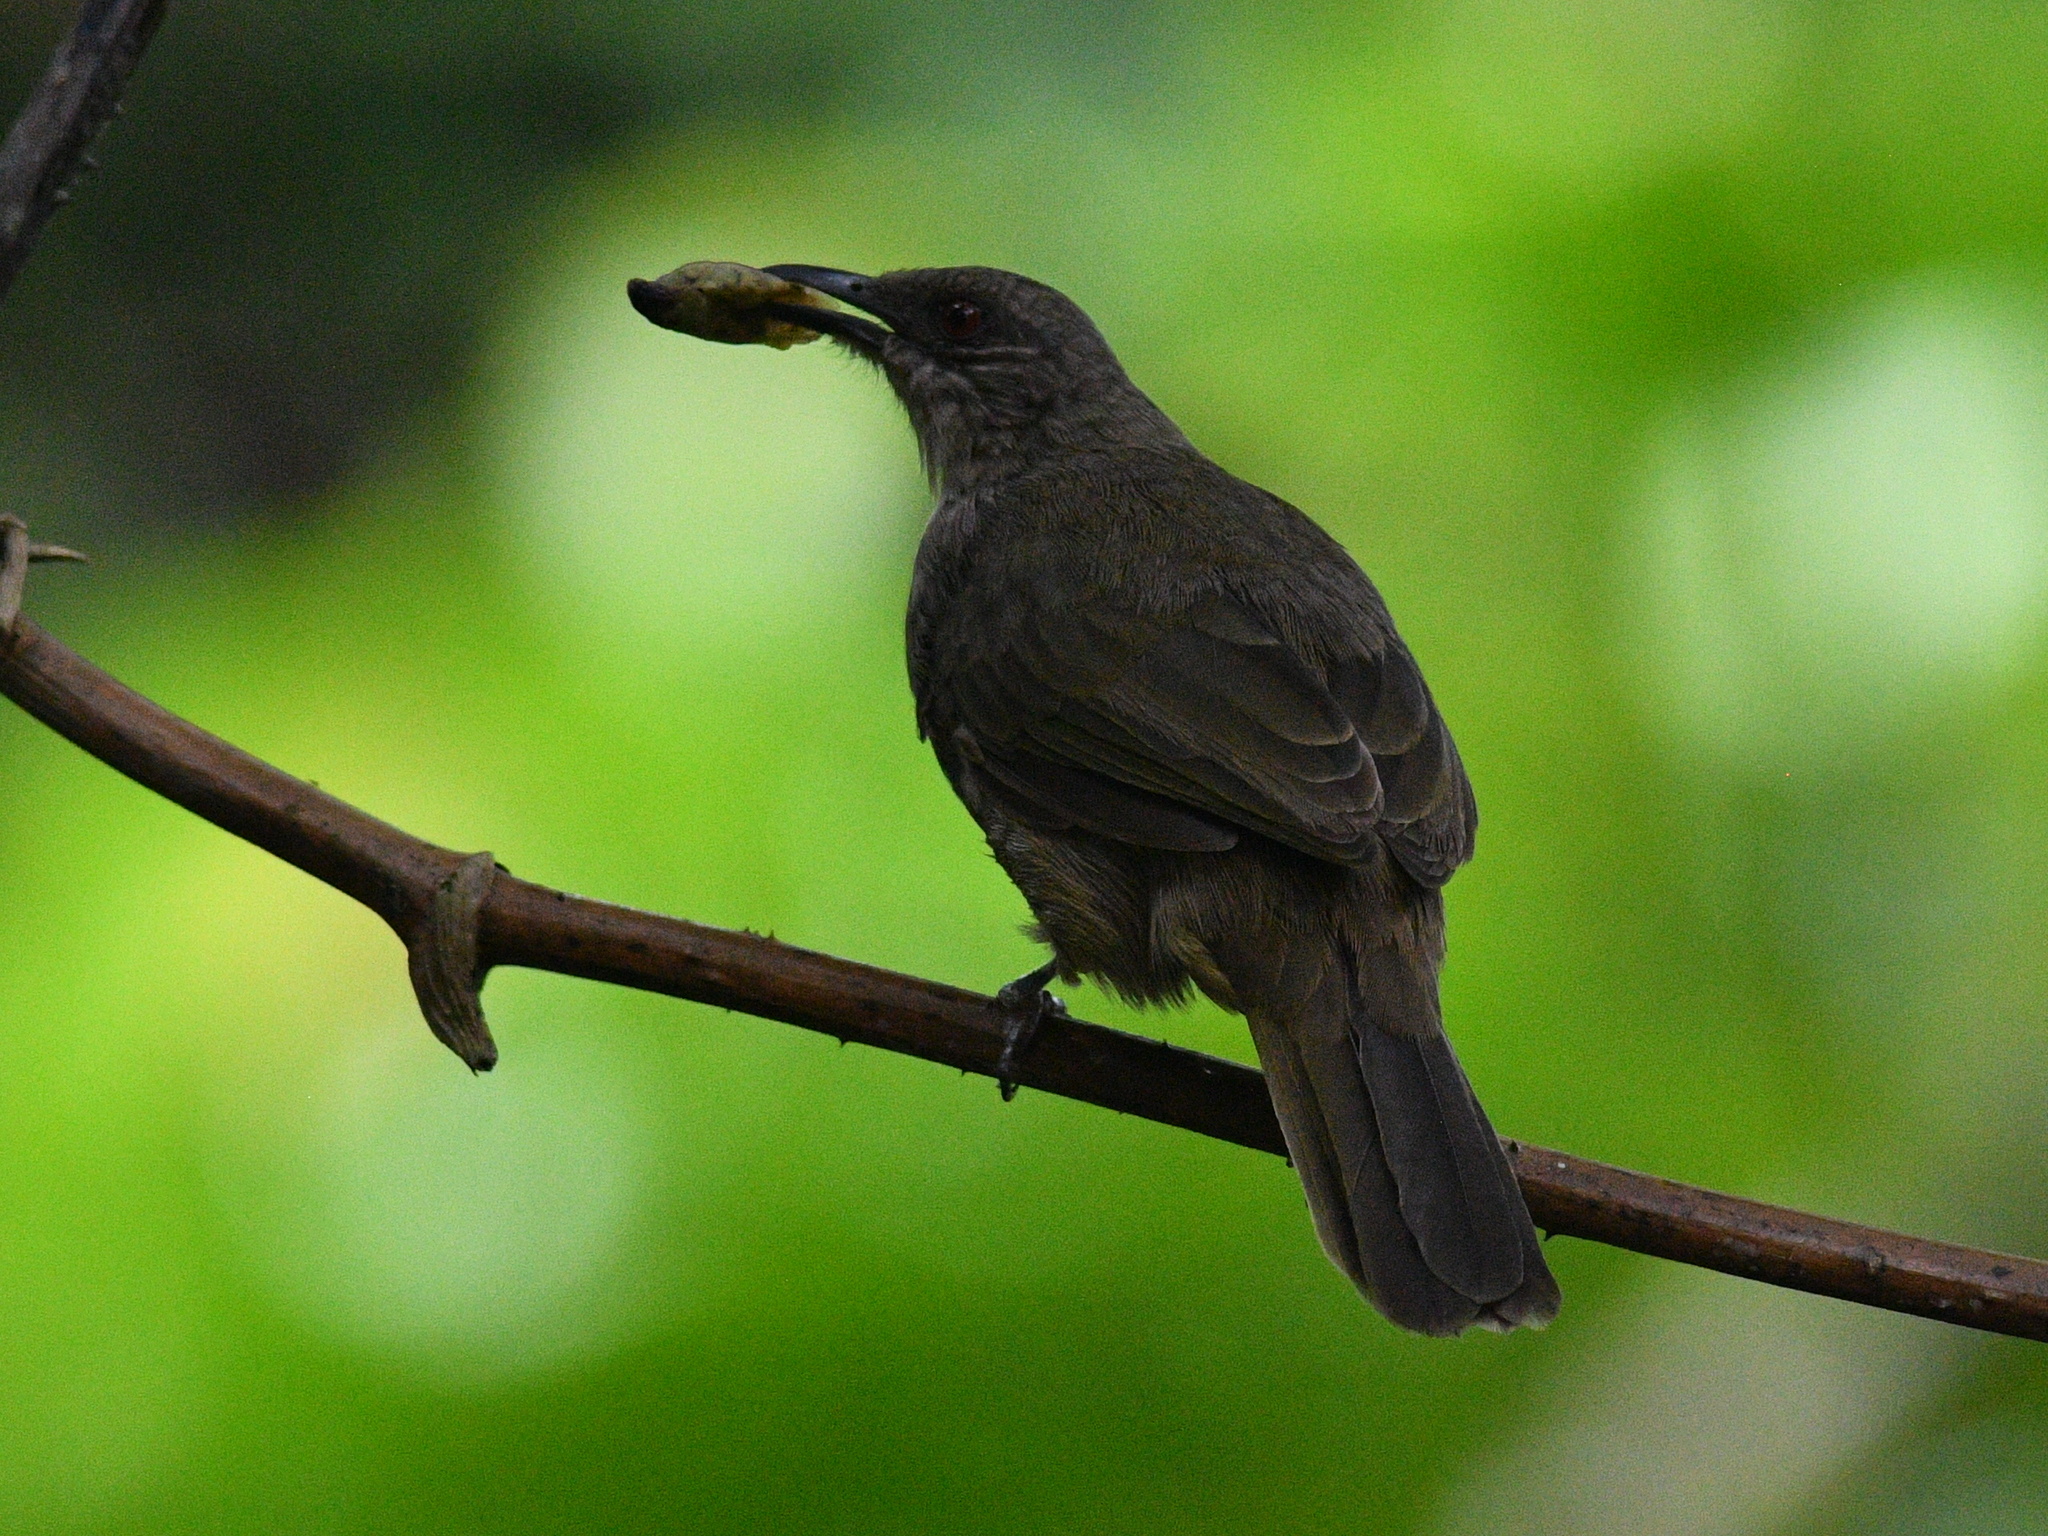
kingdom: Animalia
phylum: Chordata
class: Aves
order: Passeriformes
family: Pycnonotidae
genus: Pycnonotus
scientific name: Pycnonotus plumosus
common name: Olive-winged bulbul
